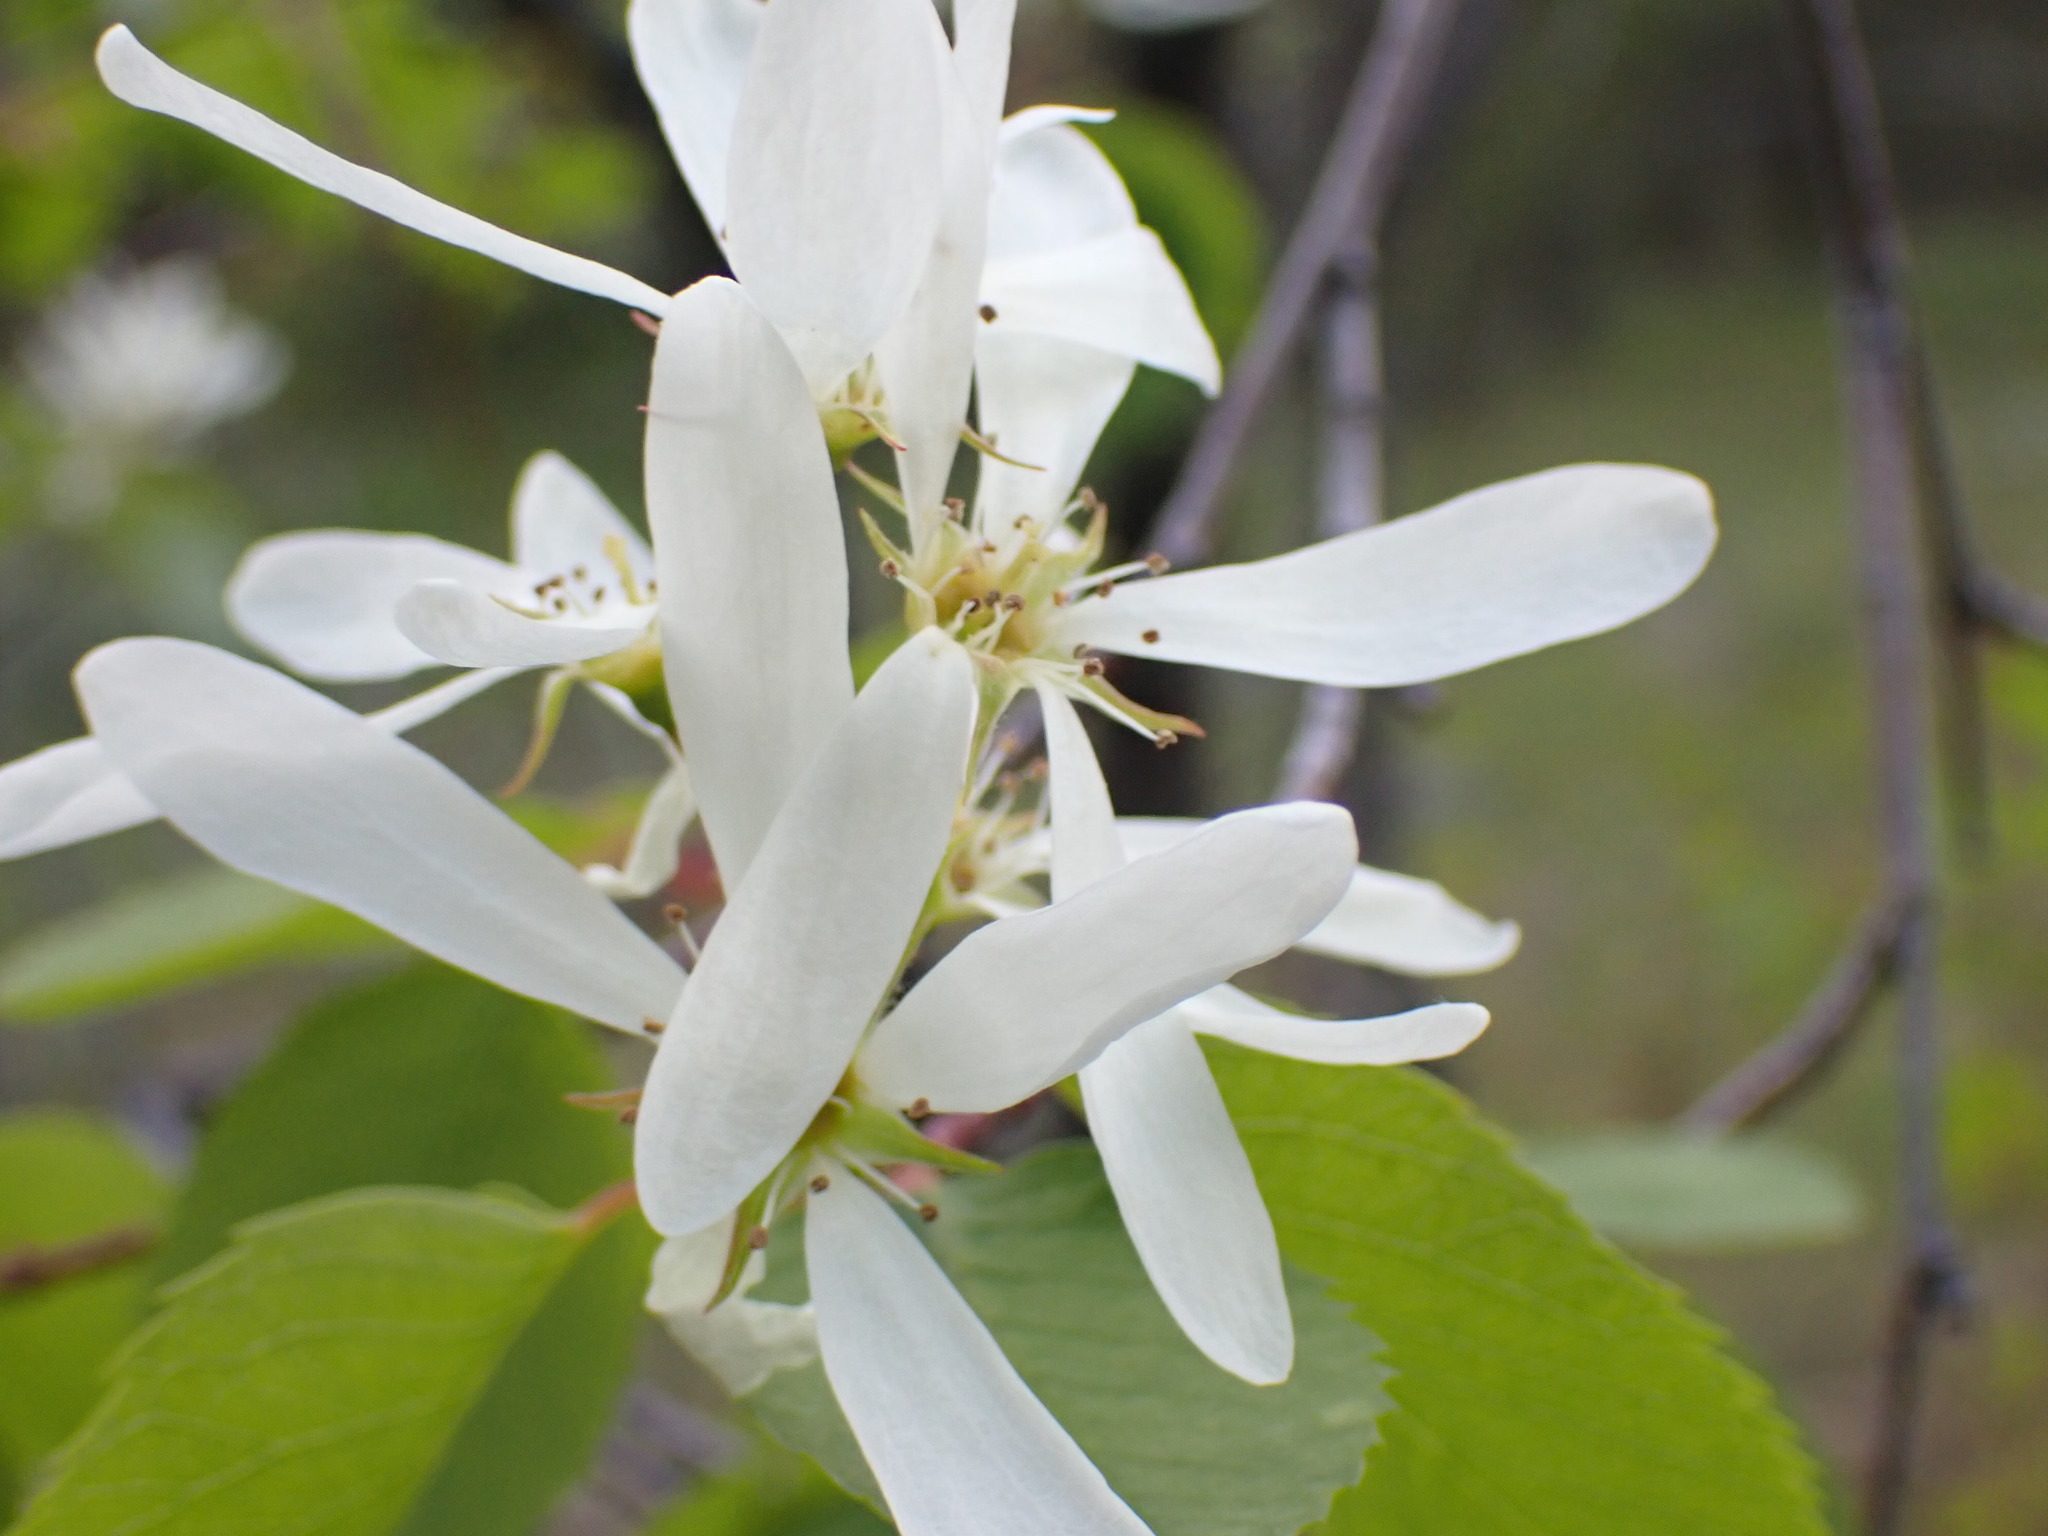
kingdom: Plantae
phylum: Tracheophyta
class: Magnoliopsida
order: Rosales
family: Rosaceae
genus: Amelanchier
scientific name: Amelanchier alnifolia
